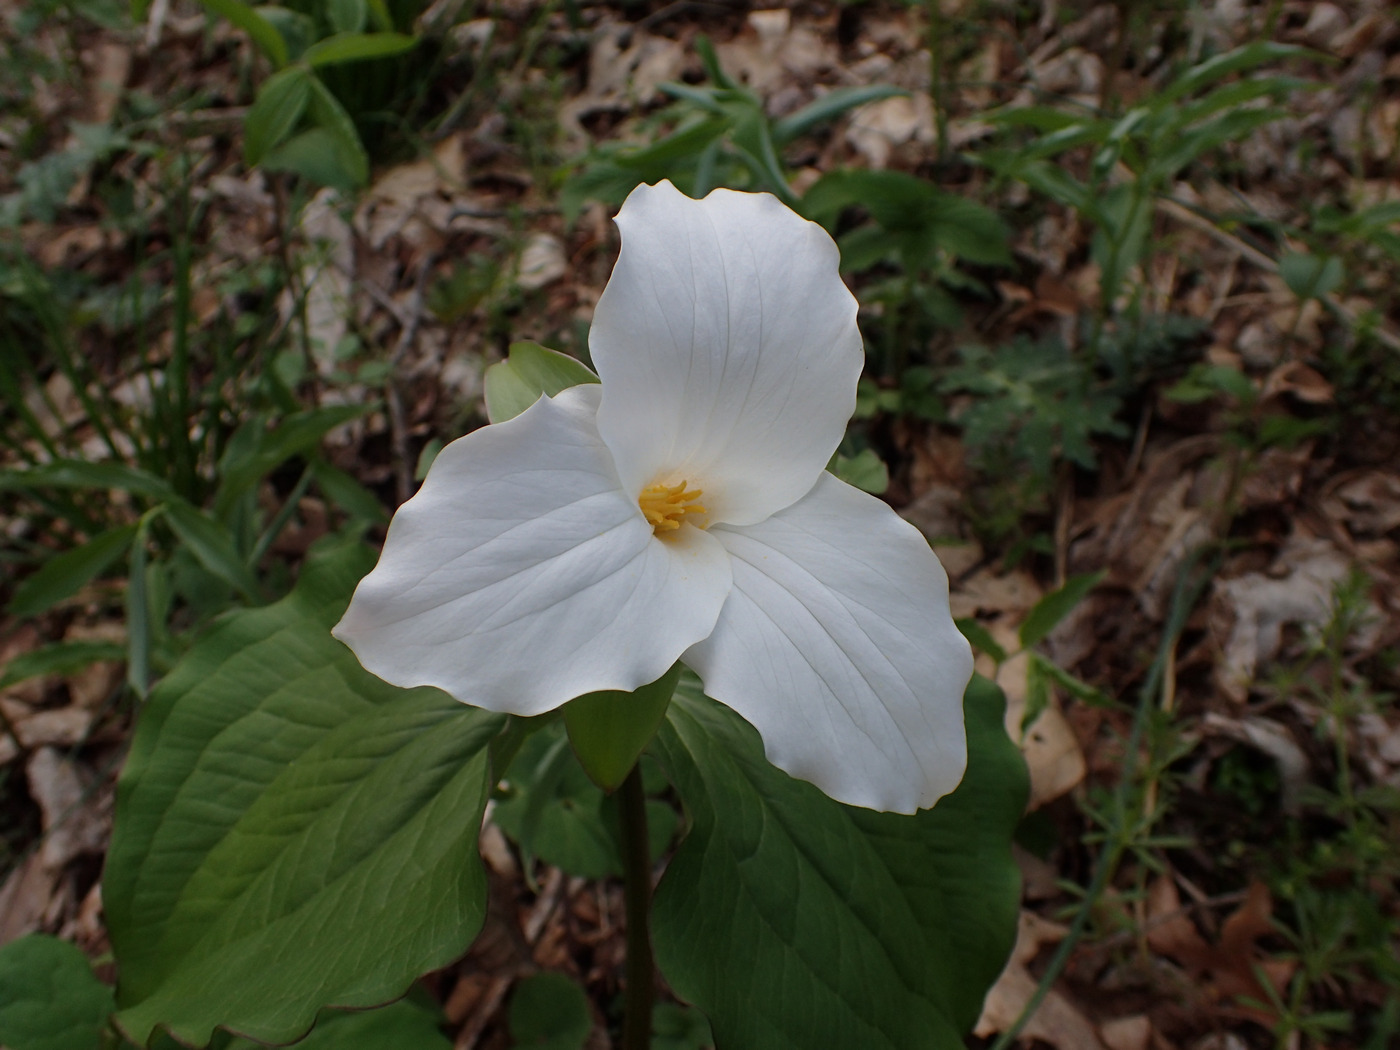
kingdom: Plantae
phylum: Tracheophyta
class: Liliopsida
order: Liliales
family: Melanthiaceae
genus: Trillium
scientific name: Trillium grandiflorum
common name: Great white trillium
